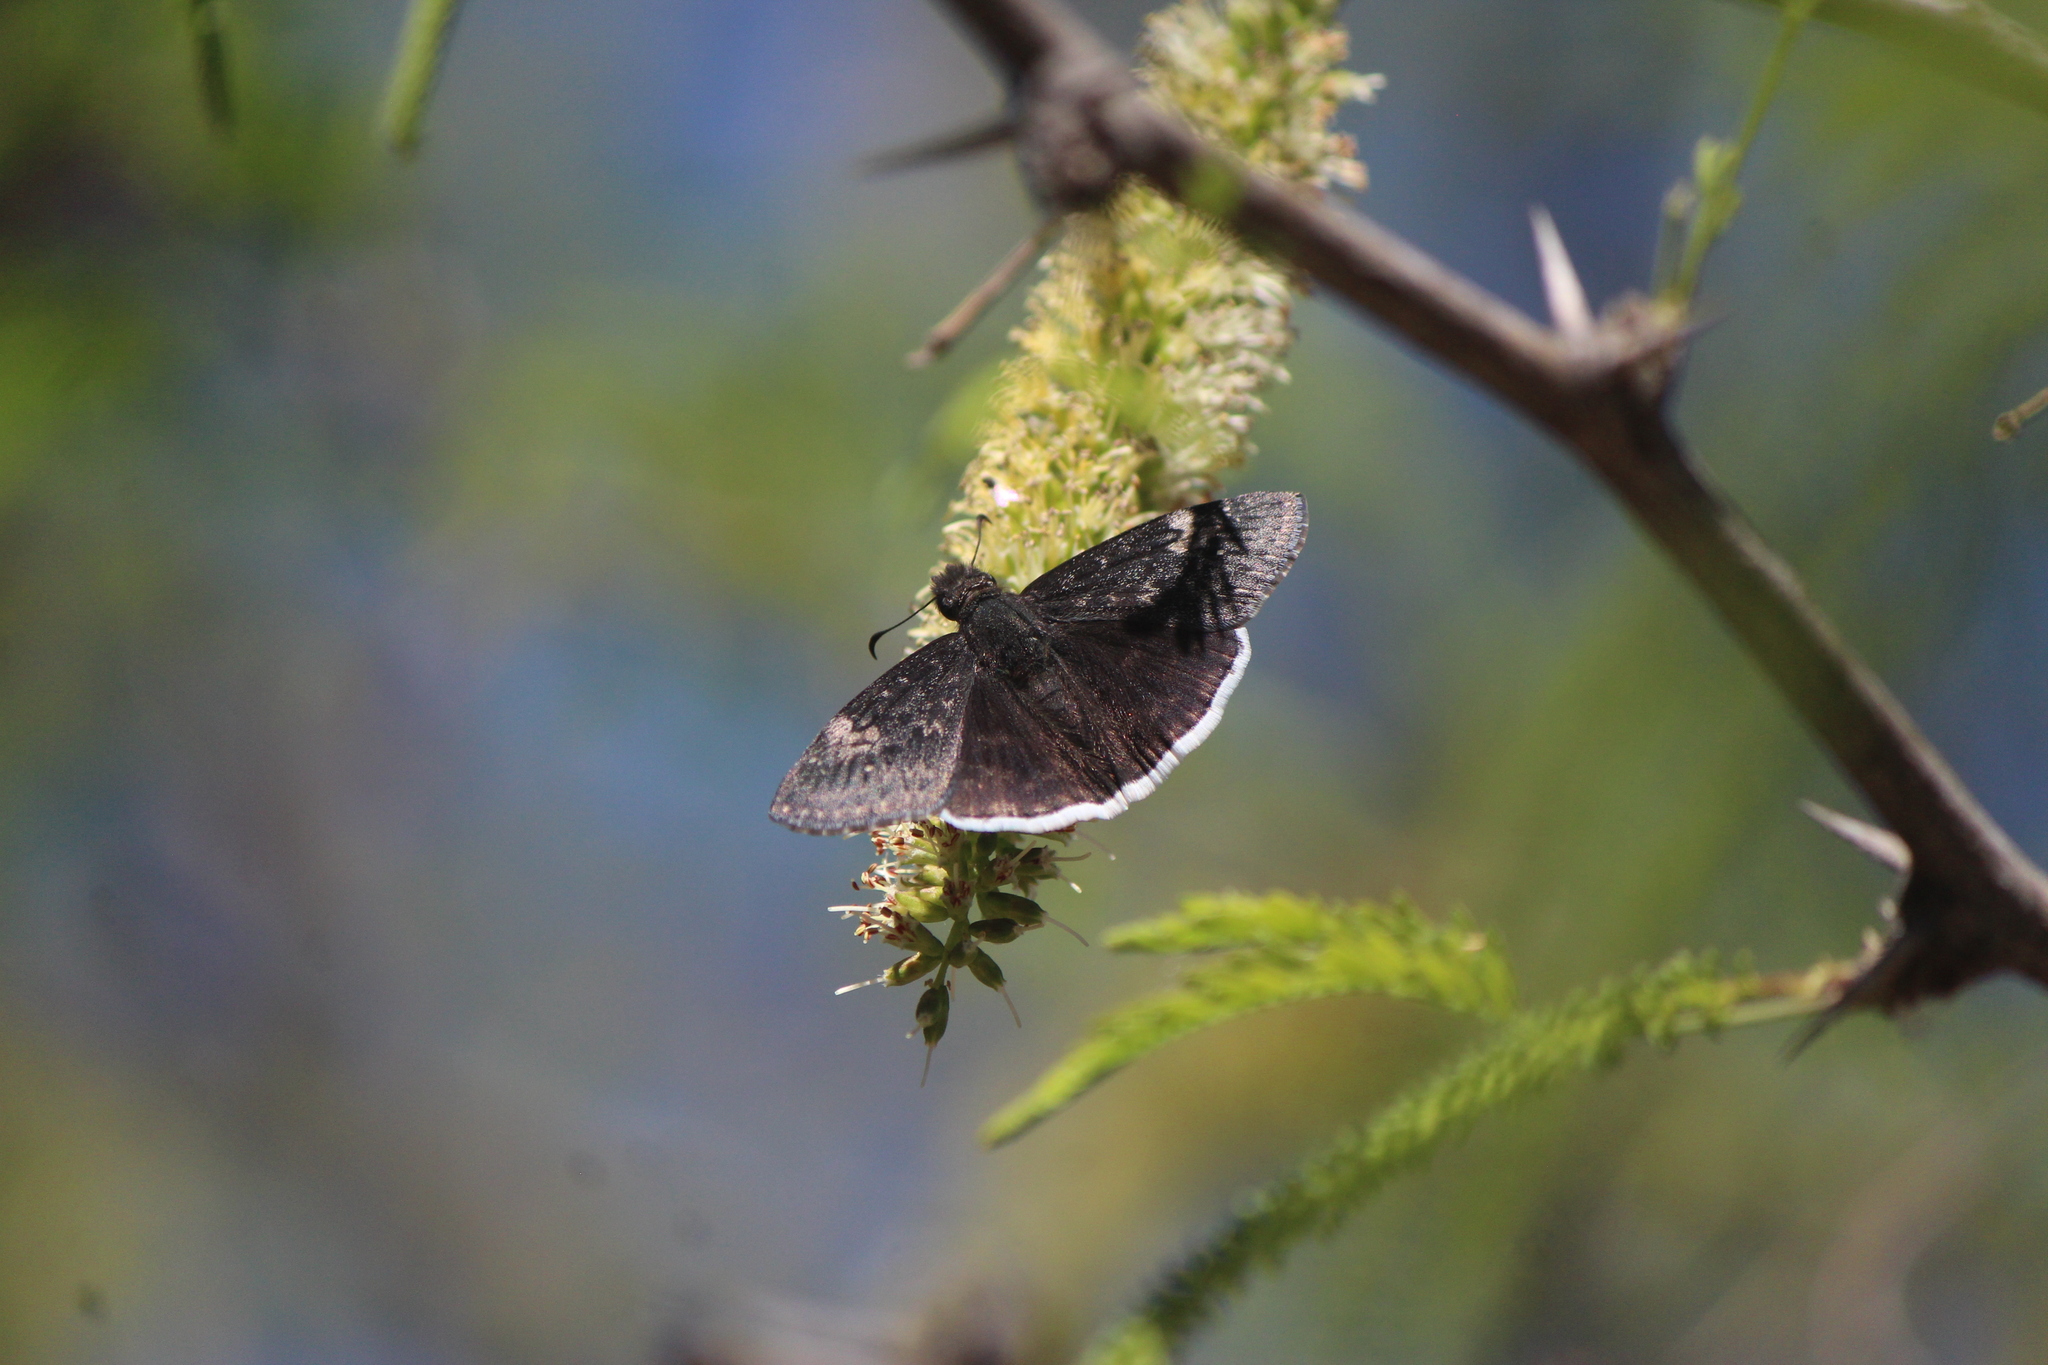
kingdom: Animalia
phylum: Arthropoda
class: Insecta
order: Lepidoptera
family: Hesperiidae
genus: Erynnis
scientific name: Erynnis funeralis
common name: Funereal duskywing
